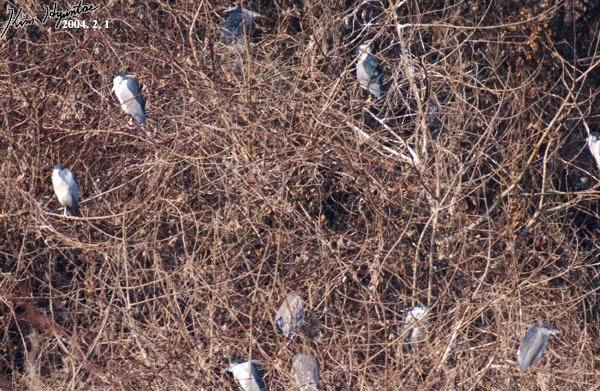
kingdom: Animalia
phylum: Chordata
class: Aves
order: Pelecaniformes
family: Ardeidae
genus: Nycticorax
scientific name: Nycticorax nycticorax
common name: Black-crowned night heron
